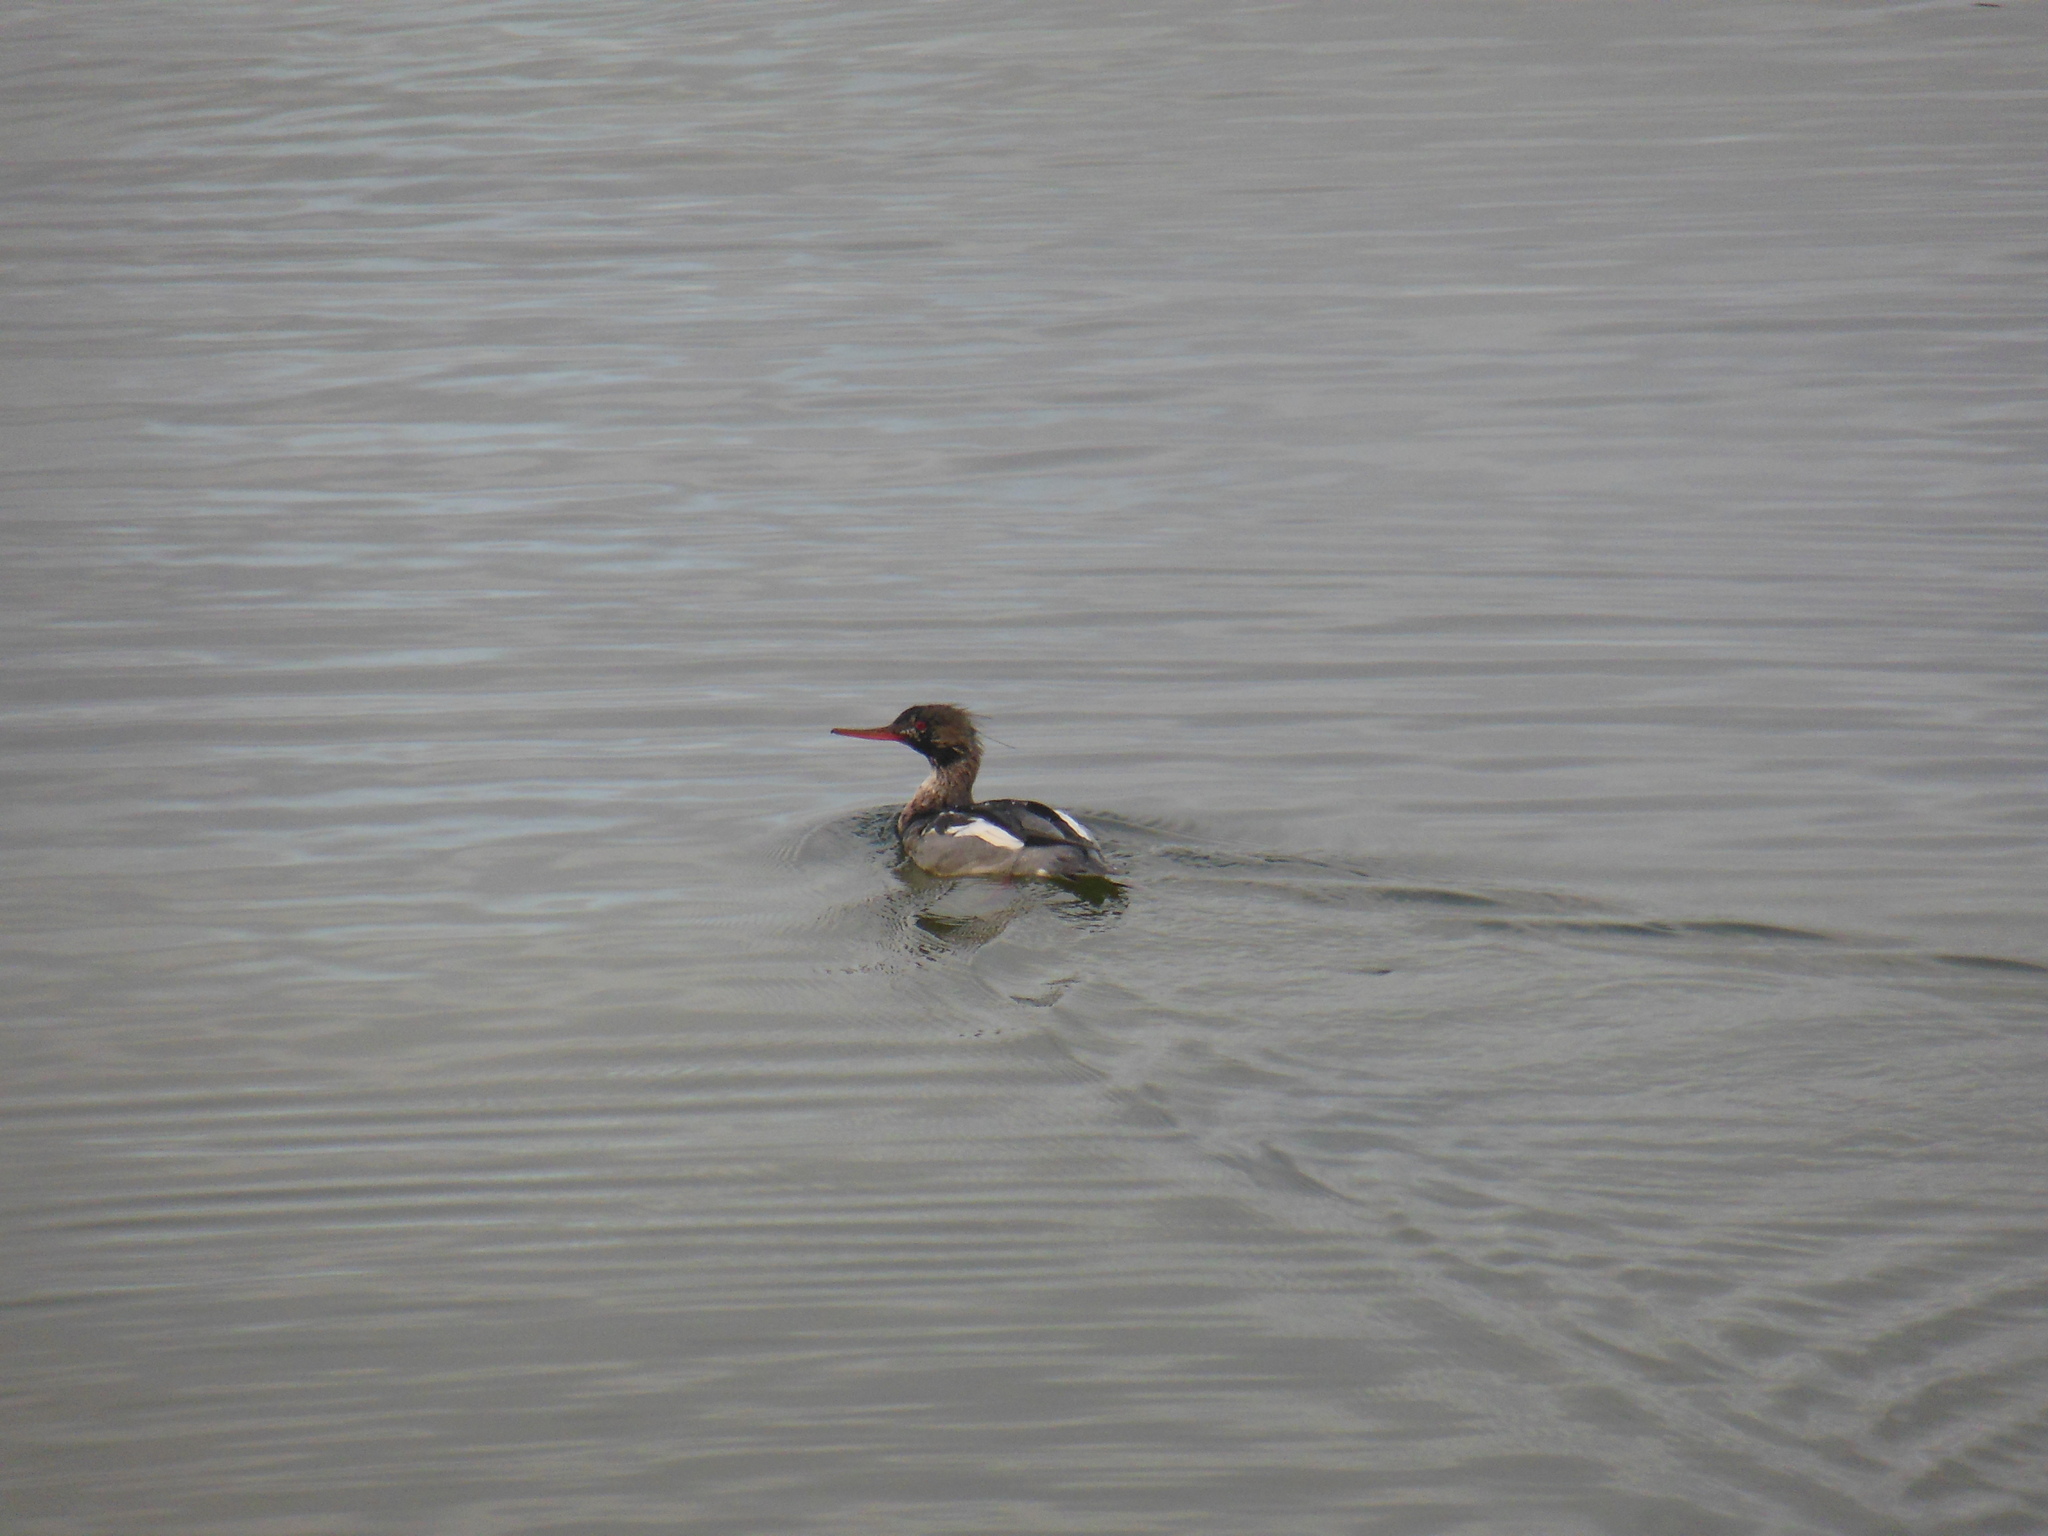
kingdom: Animalia
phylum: Chordata
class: Aves
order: Anseriformes
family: Anatidae
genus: Mergus
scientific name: Mergus serrator
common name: Red-breasted merganser
